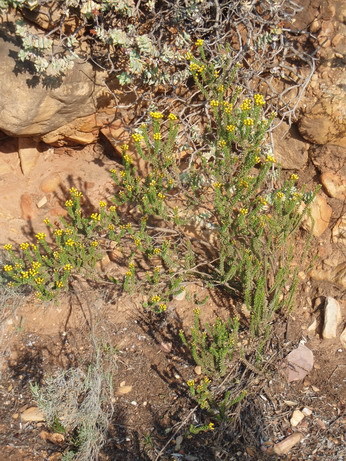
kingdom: Plantae
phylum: Tracheophyta
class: Magnoliopsida
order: Asterales
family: Asteraceae
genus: Oedera
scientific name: Oedera squarrosa
